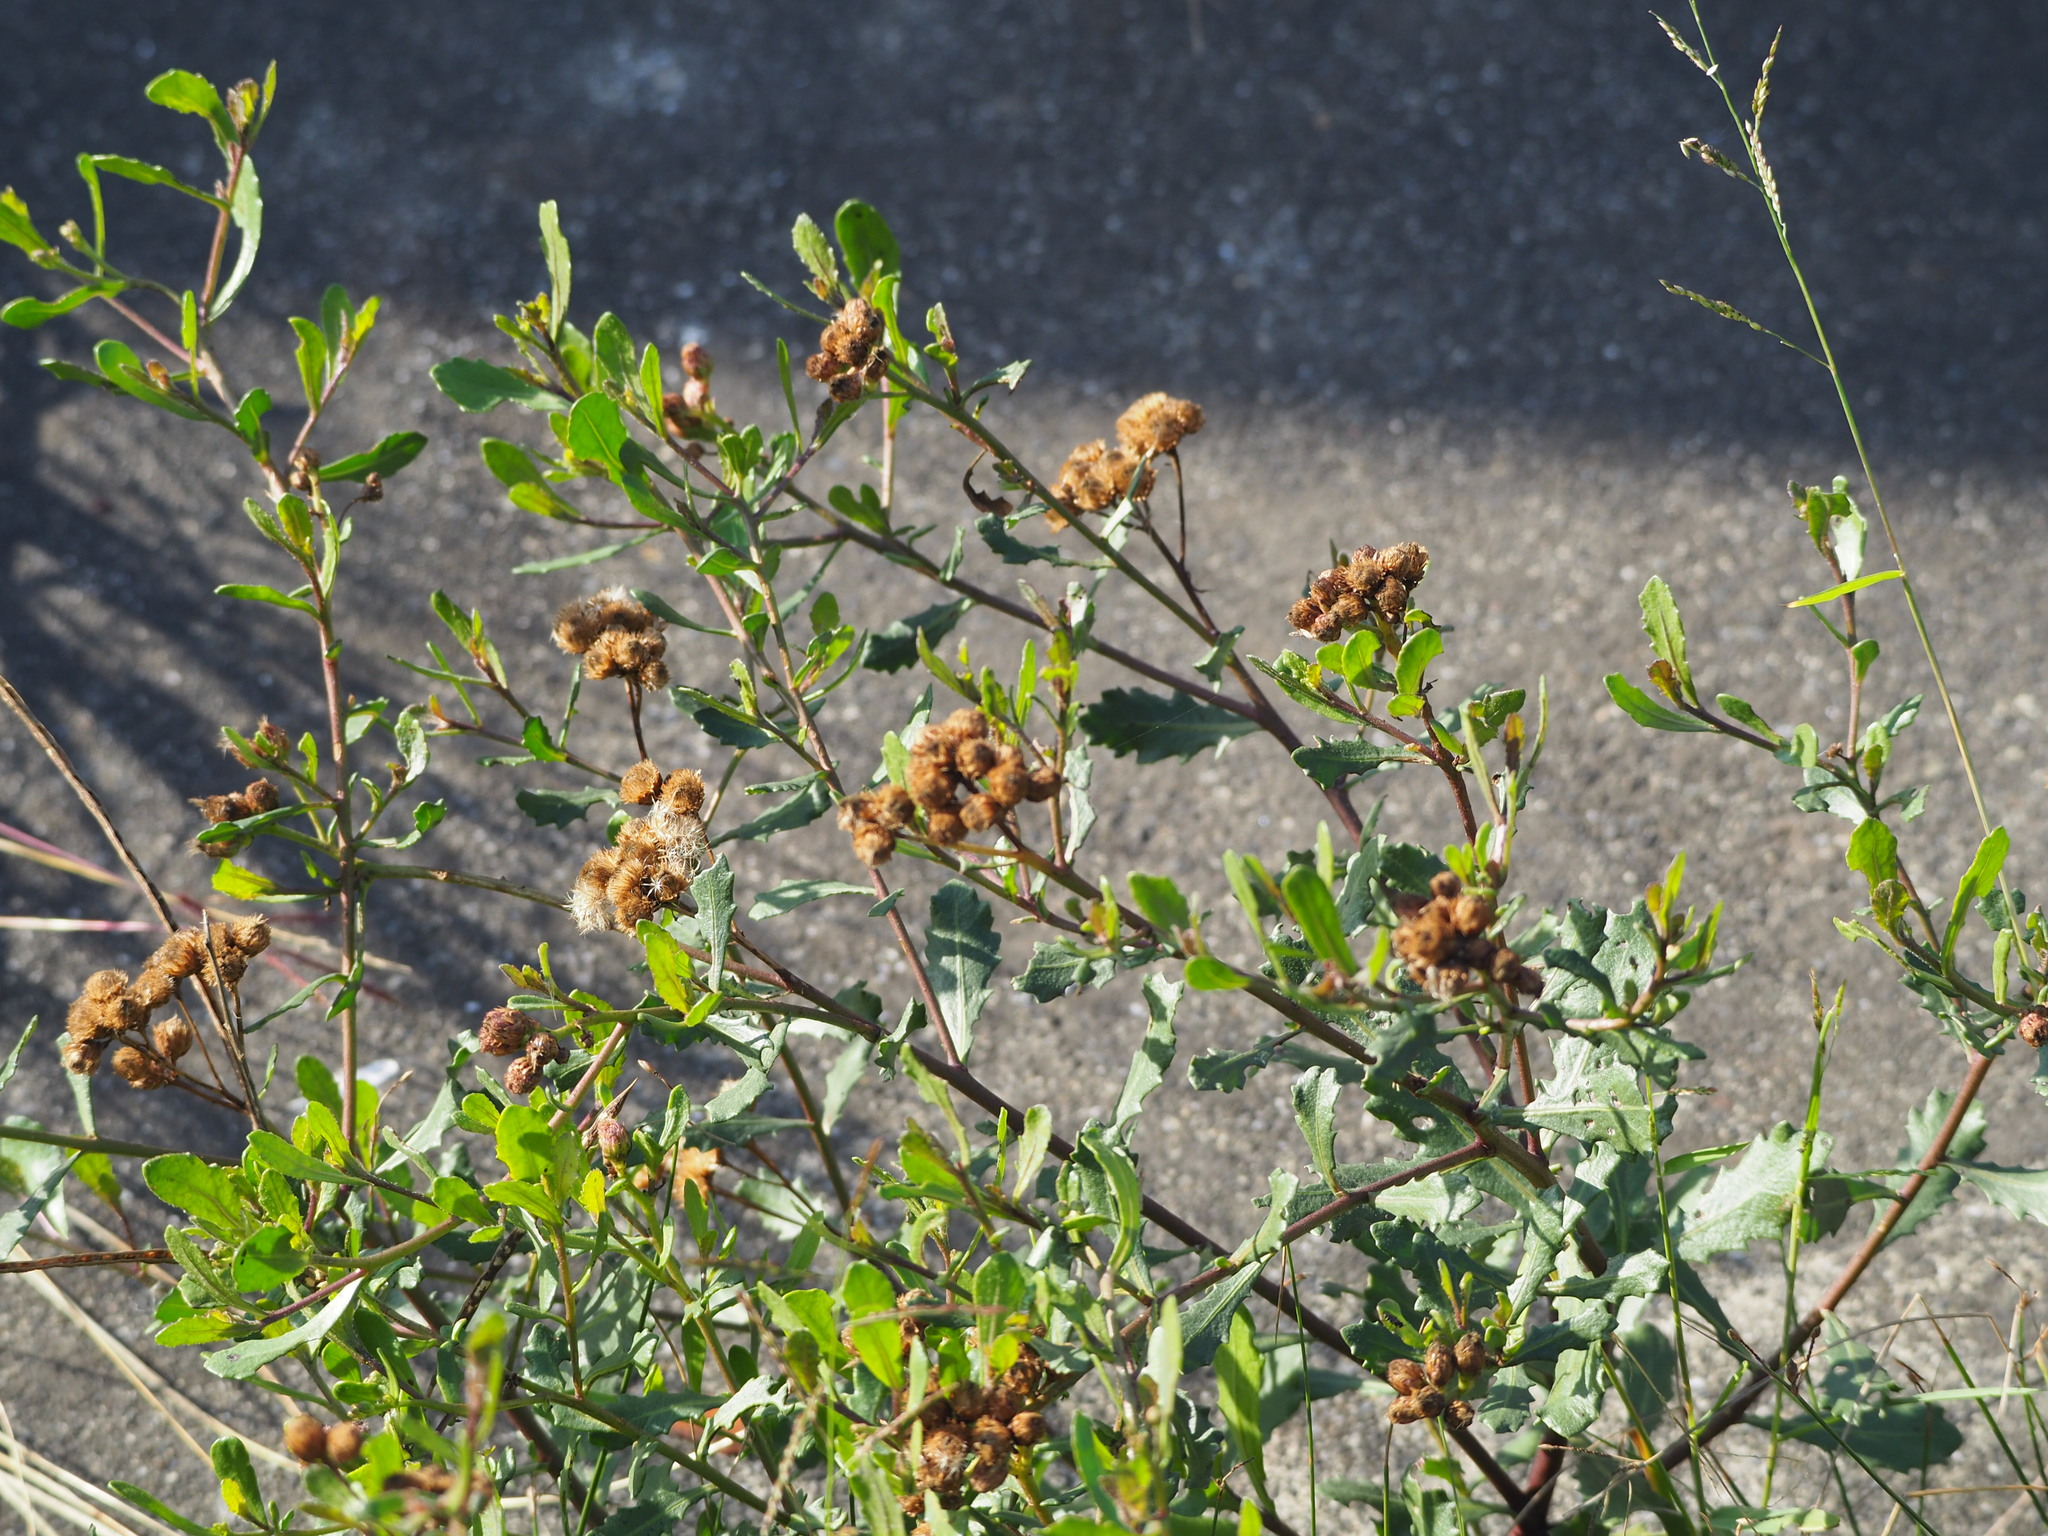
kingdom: Plantae
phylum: Tracheophyta
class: Magnoliopsida
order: Asterales
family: Asteraceae
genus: Pluchea
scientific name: Pluchea pteropoda
